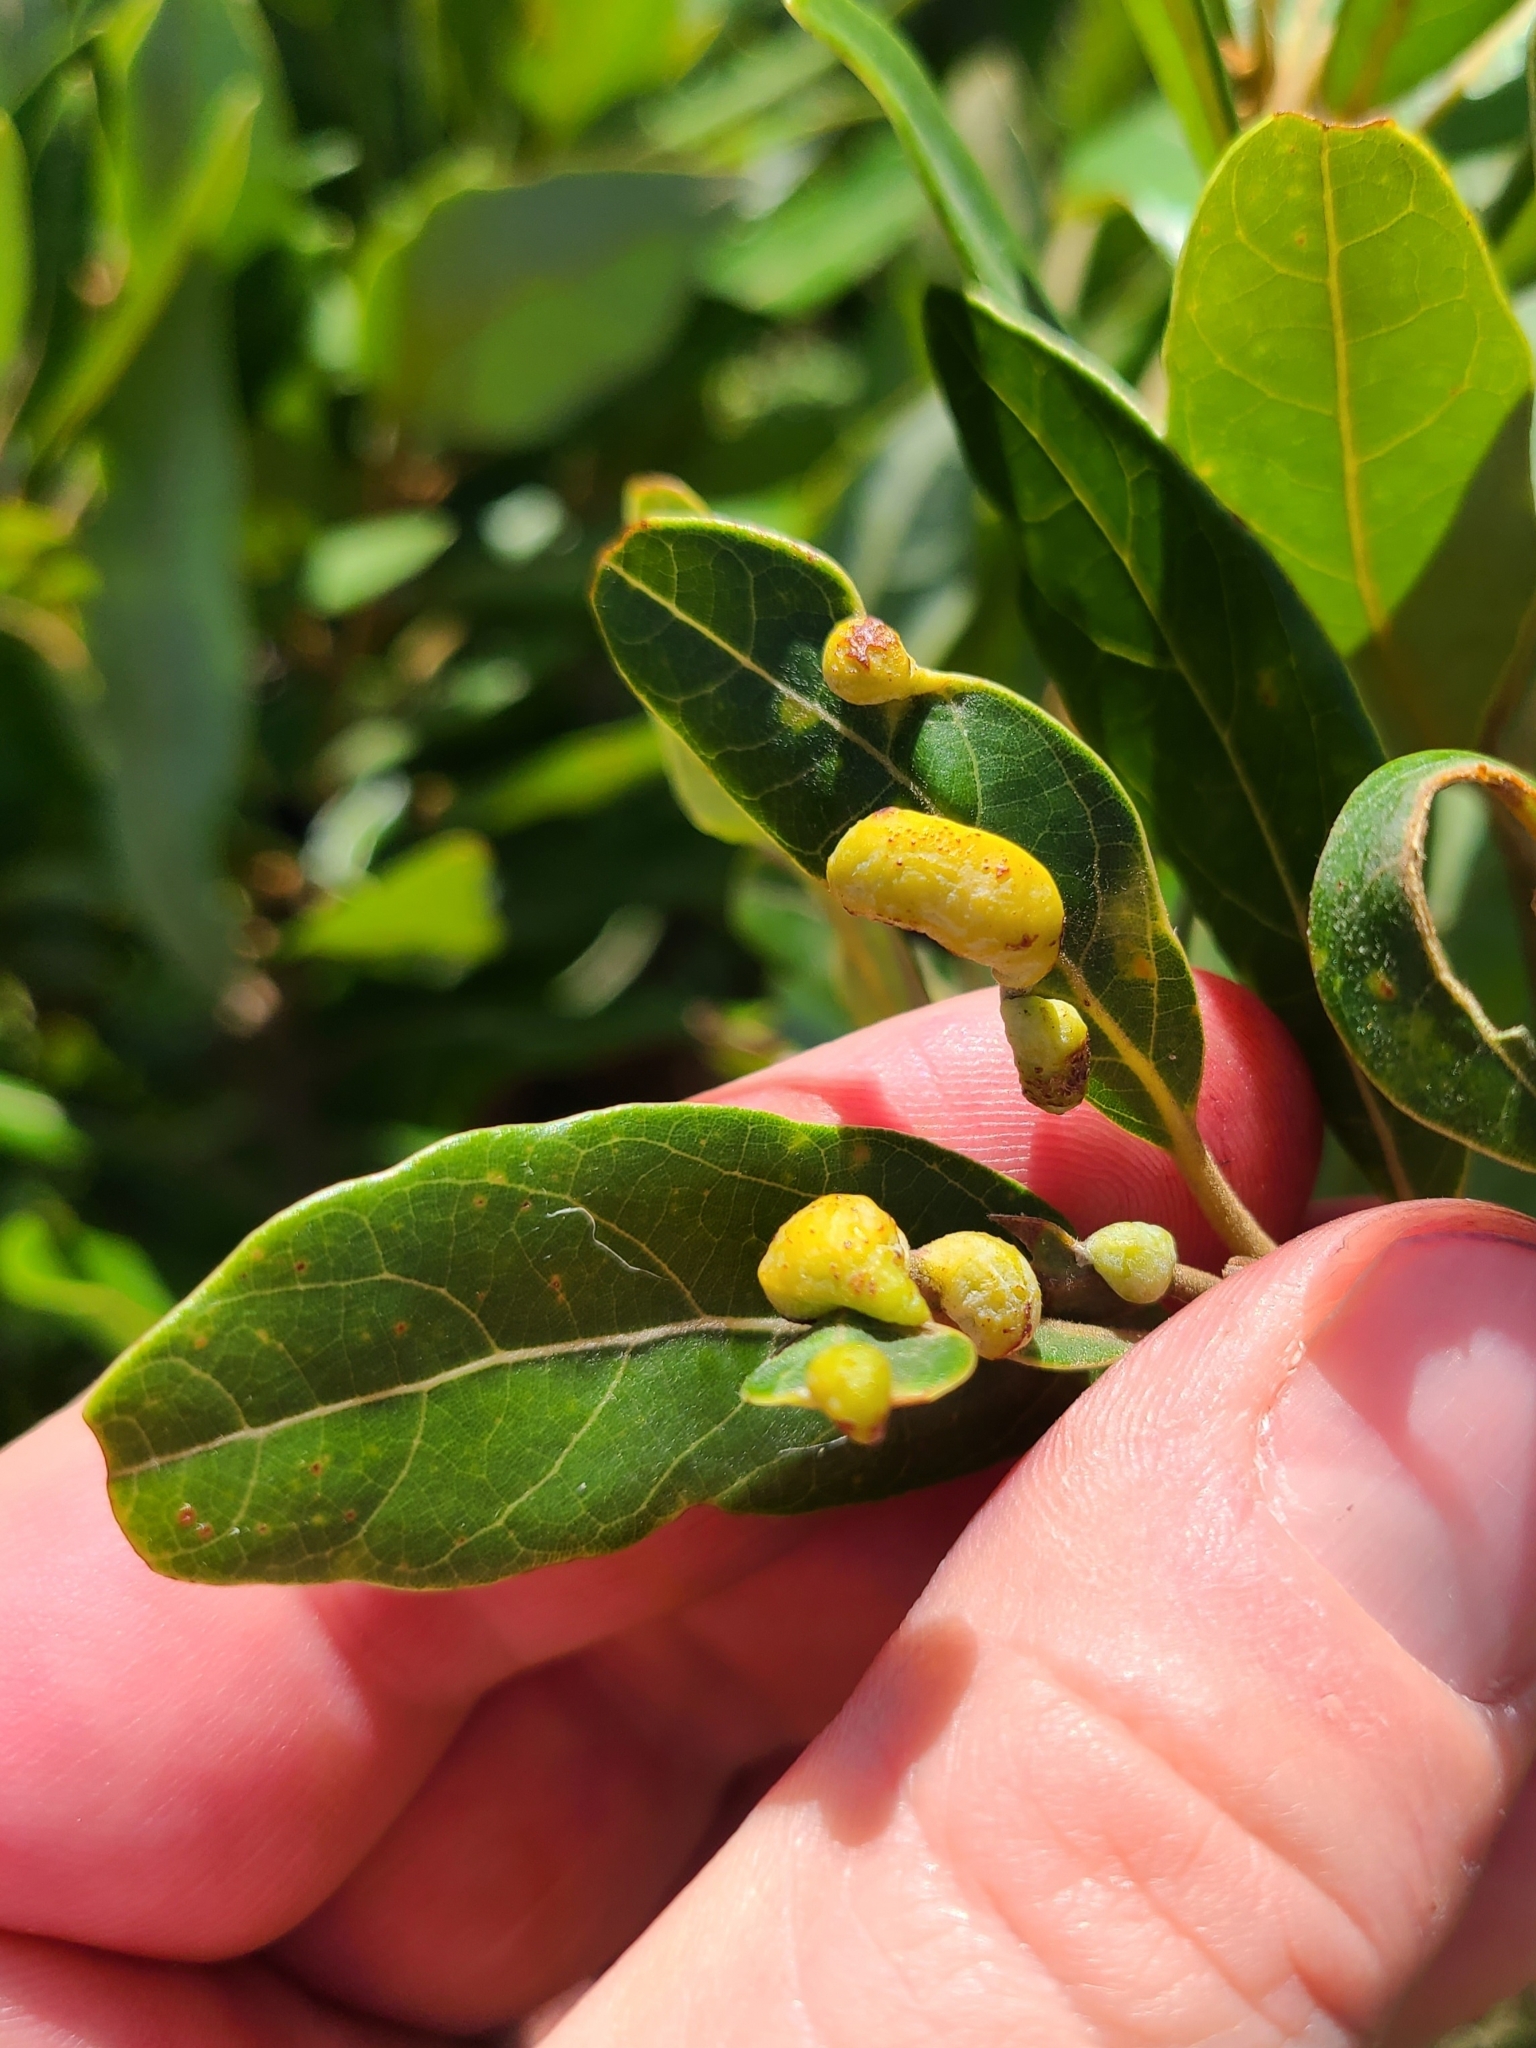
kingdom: Animalia
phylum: Arthropoda
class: Insecta
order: Hemiptera
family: Triozidae
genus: Trioza
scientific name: Trioza magnoliae
